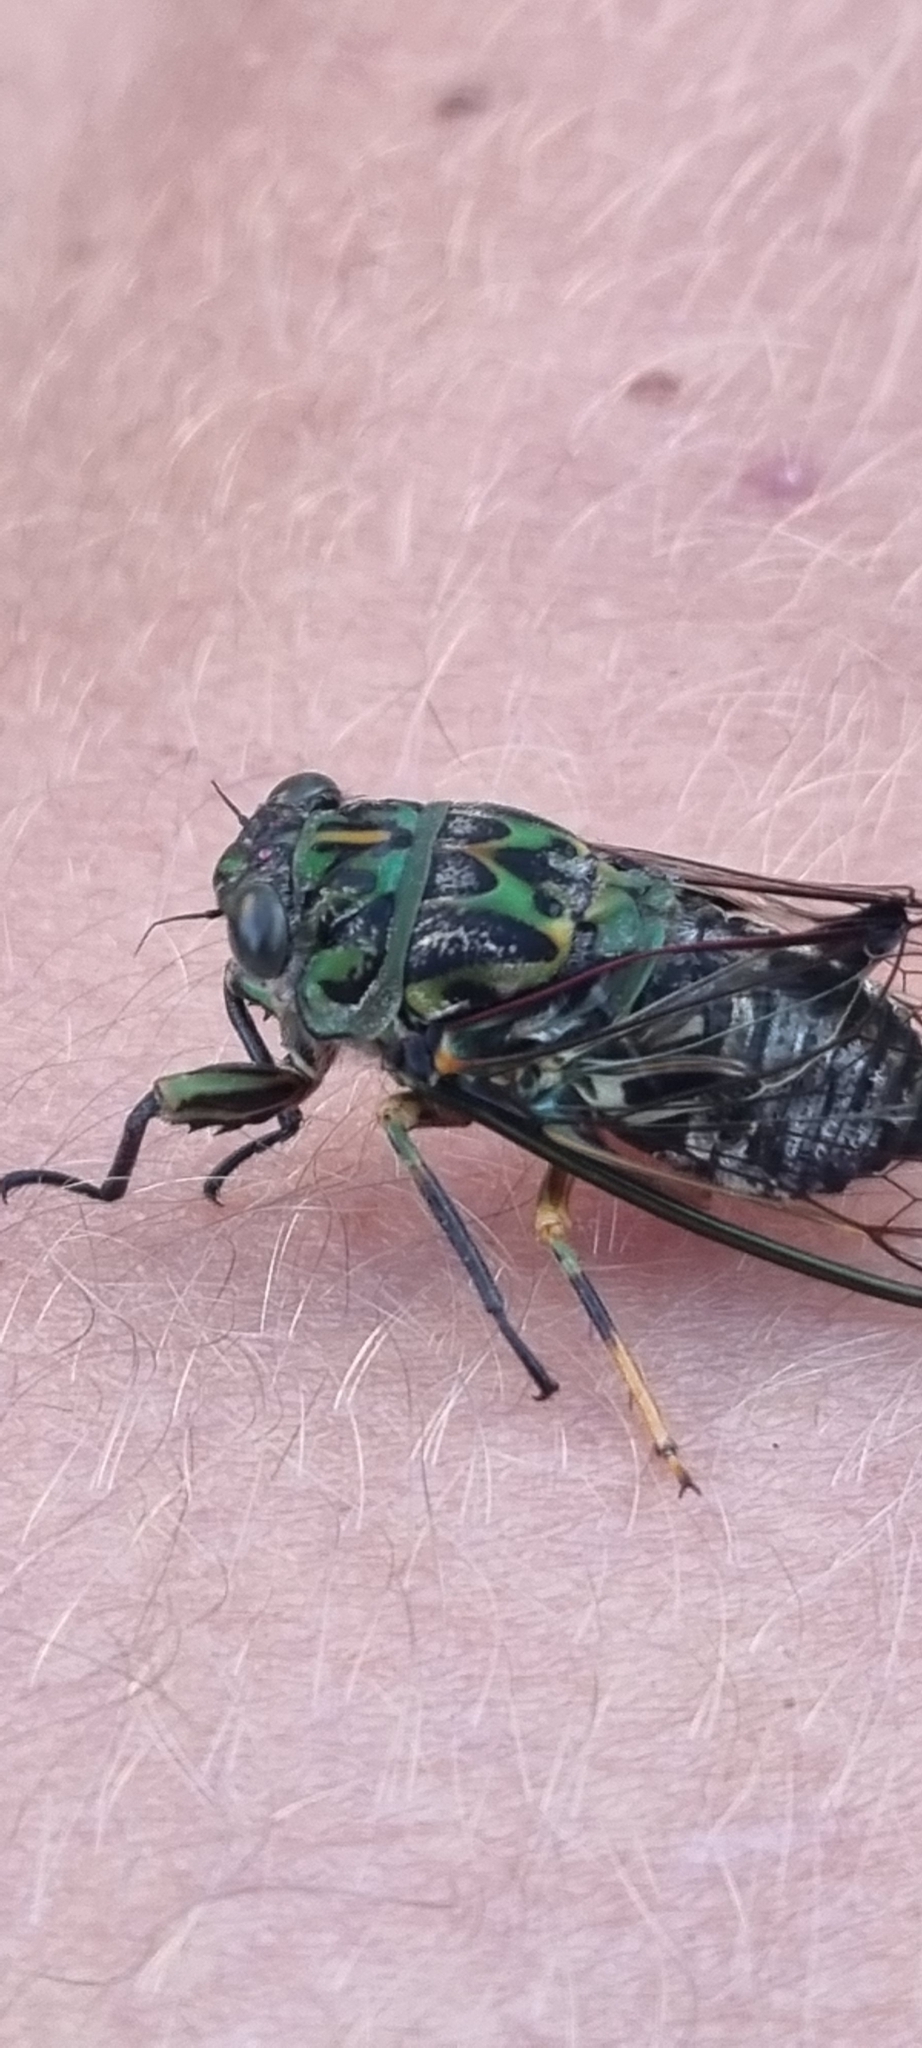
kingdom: Animalia
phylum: Arthropoda
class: Insecta
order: Hemiptera
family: Cicadidae
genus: Amphipsalta
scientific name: Amphipsalta zelandica
